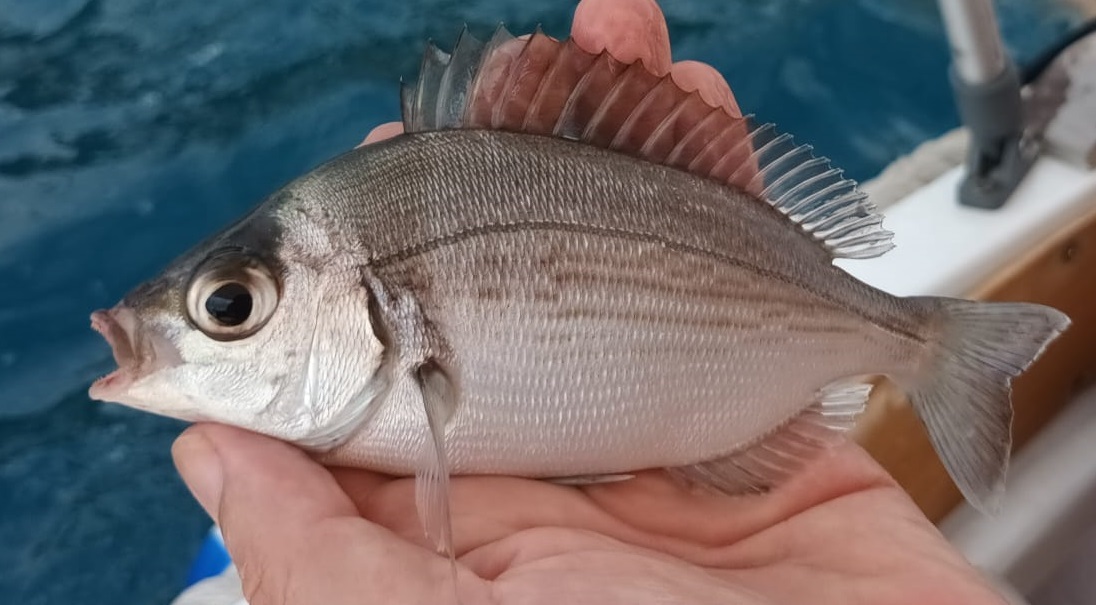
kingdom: Animalia
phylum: Chordata
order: Perciformes
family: Sparidae
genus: Spondyliosoma
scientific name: Spondyliosoma cantharus
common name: Black seabream
